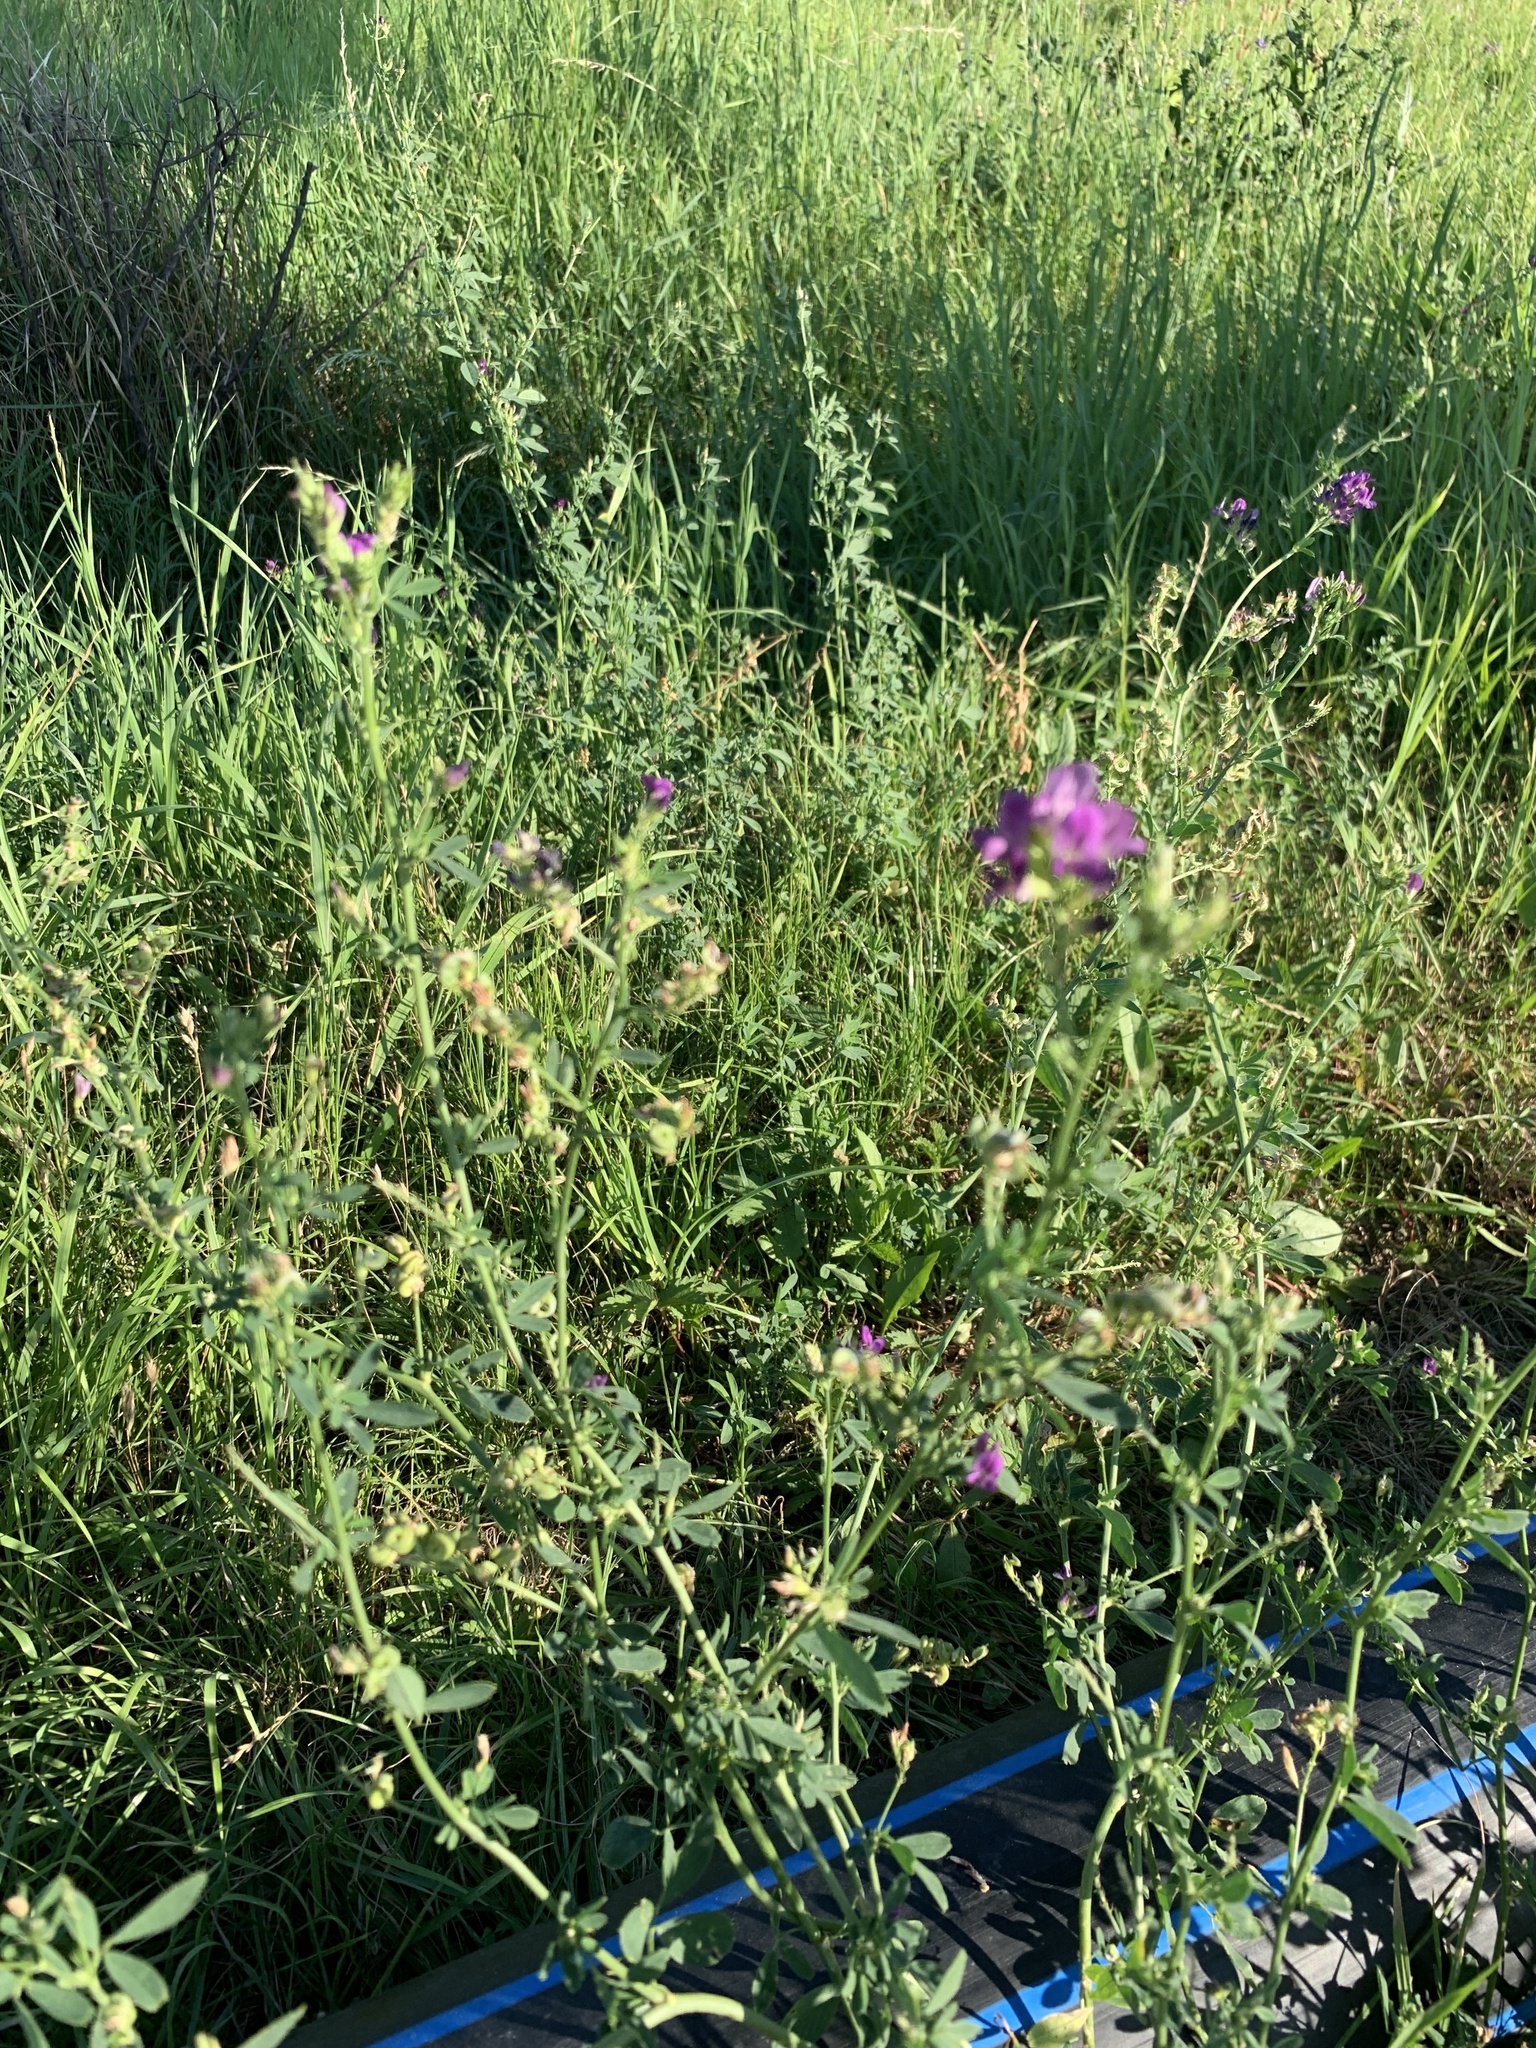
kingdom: Plantae
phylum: Tracheophyta
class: Magnoliopsida
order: Fabales
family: Fabaceae
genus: Medicago
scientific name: Medicago sativa
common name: Alfalfa
